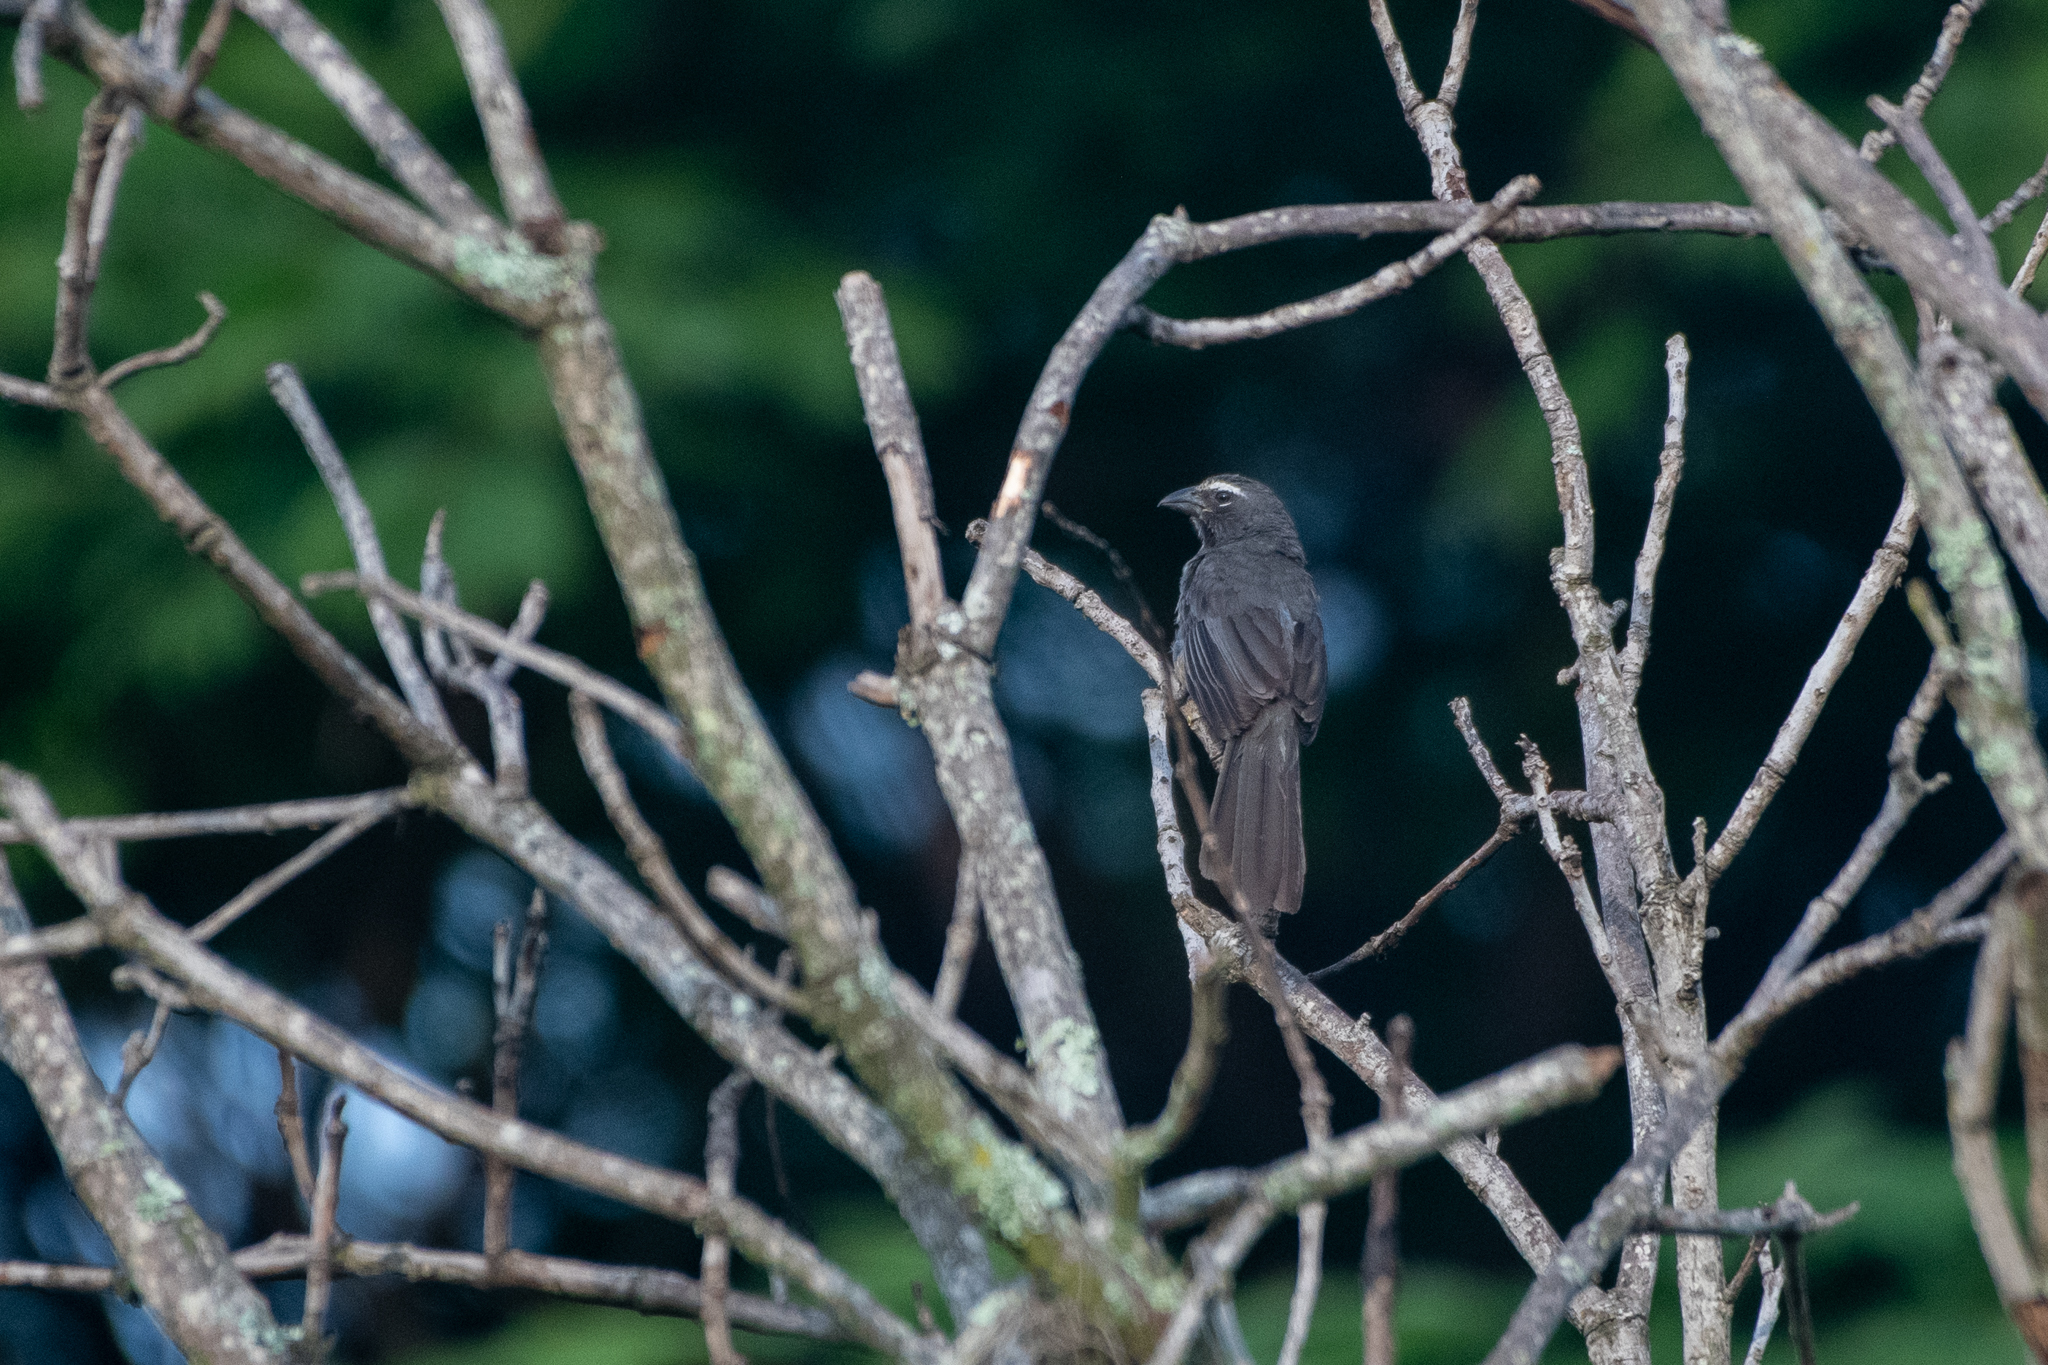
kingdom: Animalia
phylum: Chordata
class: Aves
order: Passeriformes
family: Thraupidae
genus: Saltator
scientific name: Saltator grandis
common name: Cinnamon-bellied saltator
